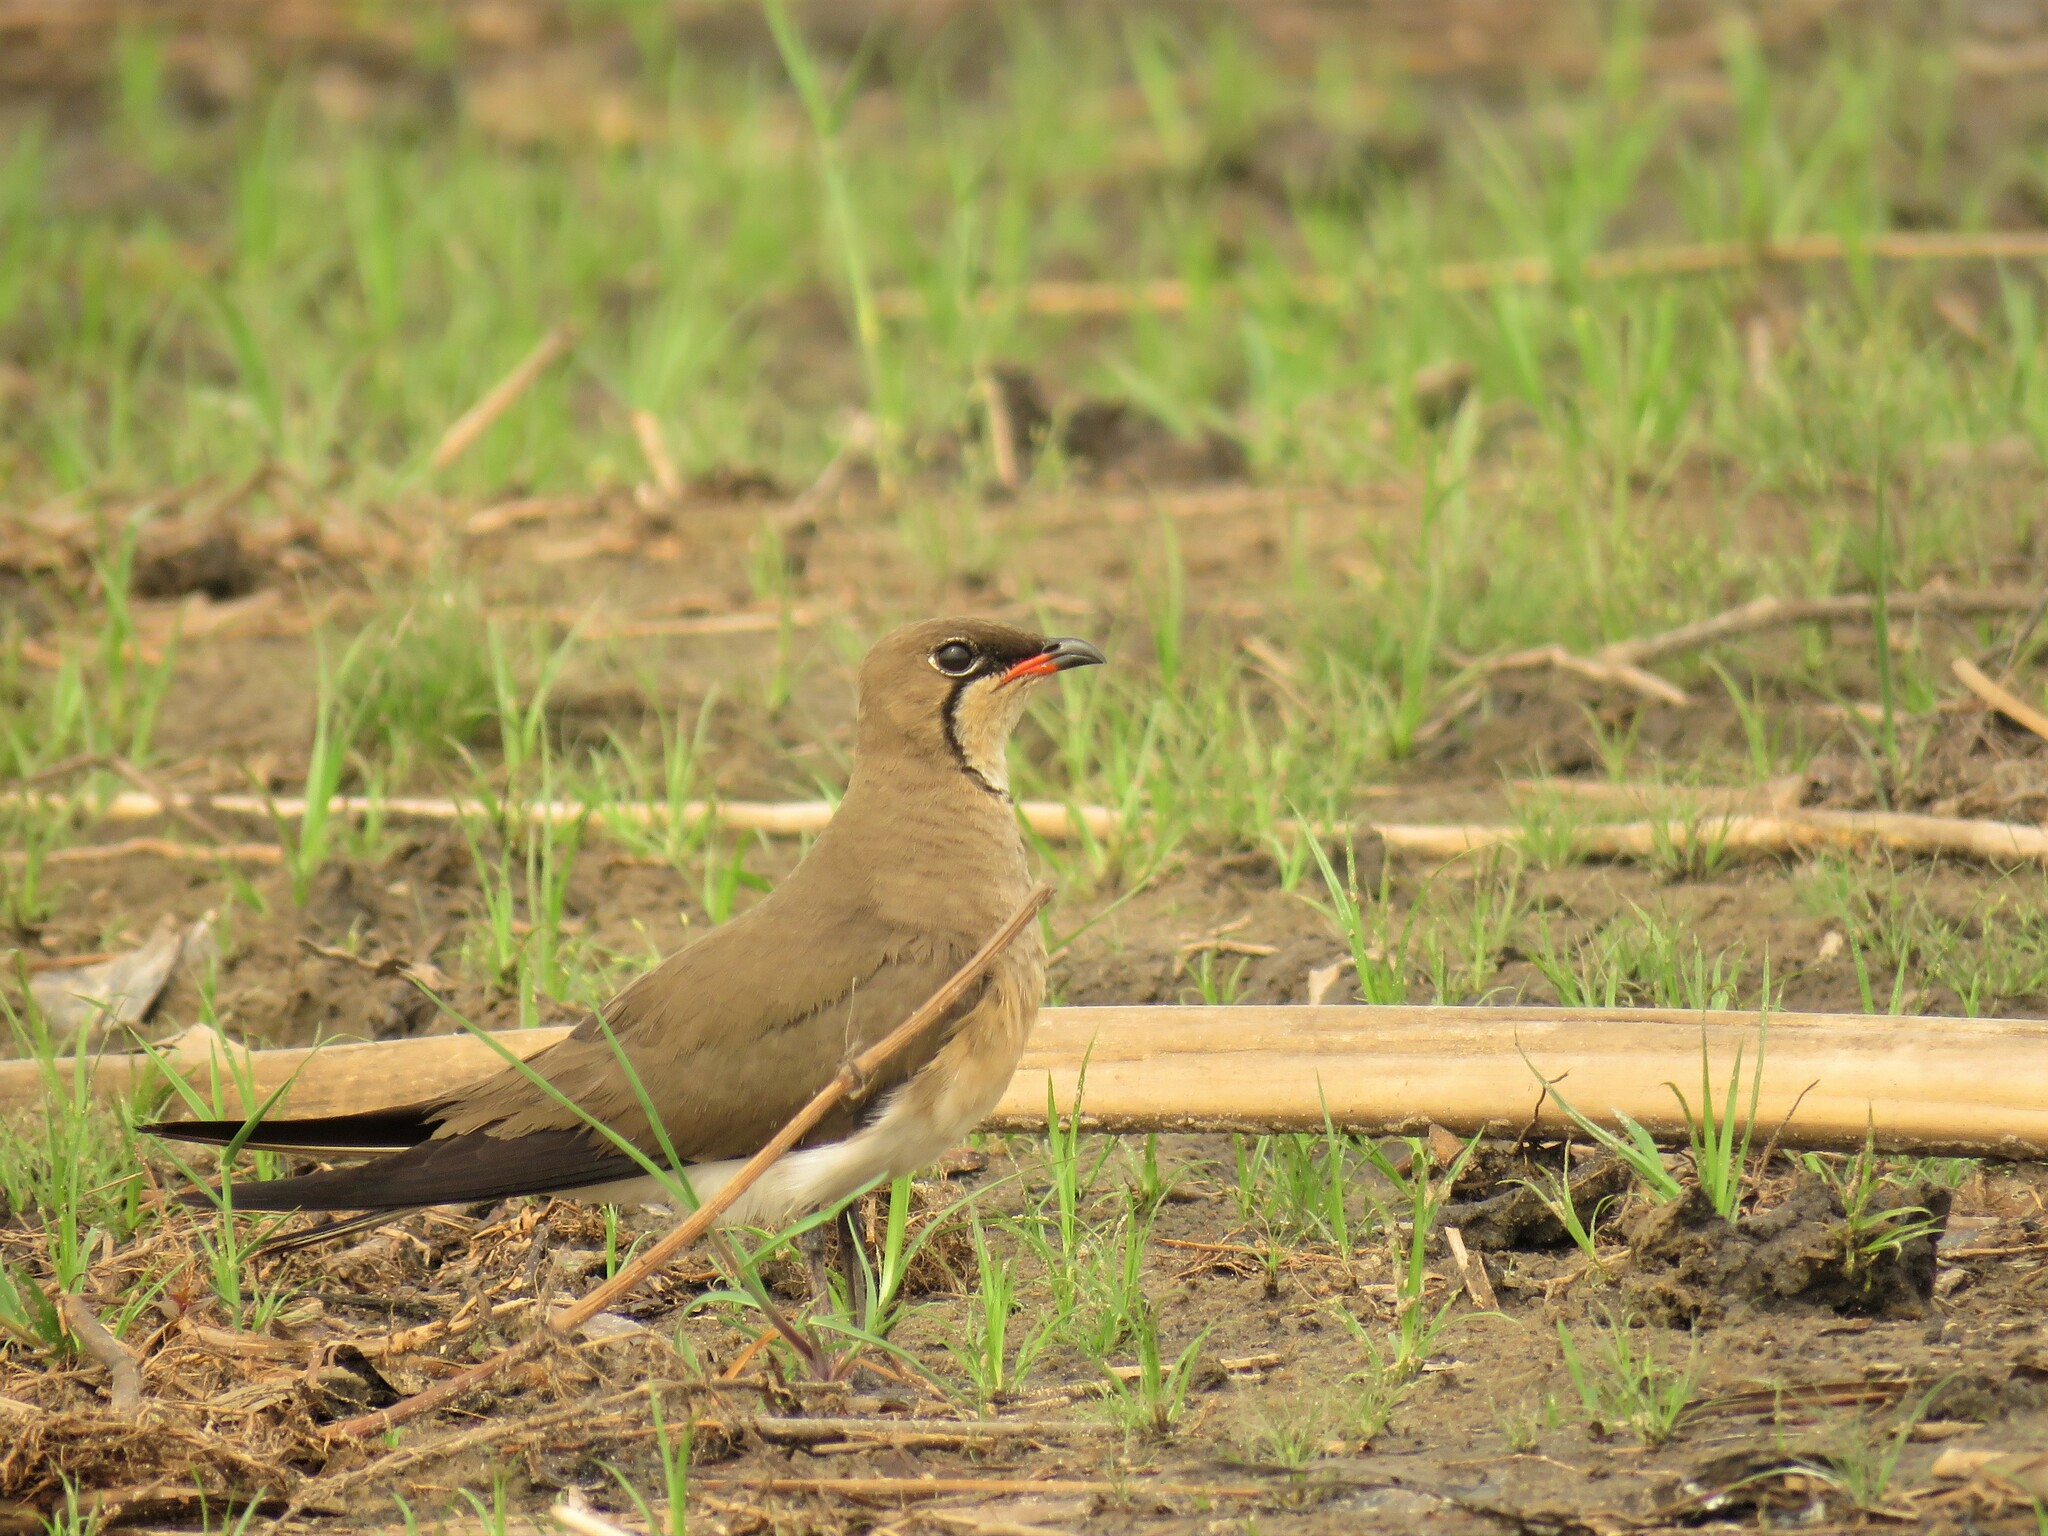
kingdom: Animalia
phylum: Chordata
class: Aves
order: Charadriiformes
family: Glareolidae
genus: Glareola
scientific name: Glareola pratincola
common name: Collared pratincole
